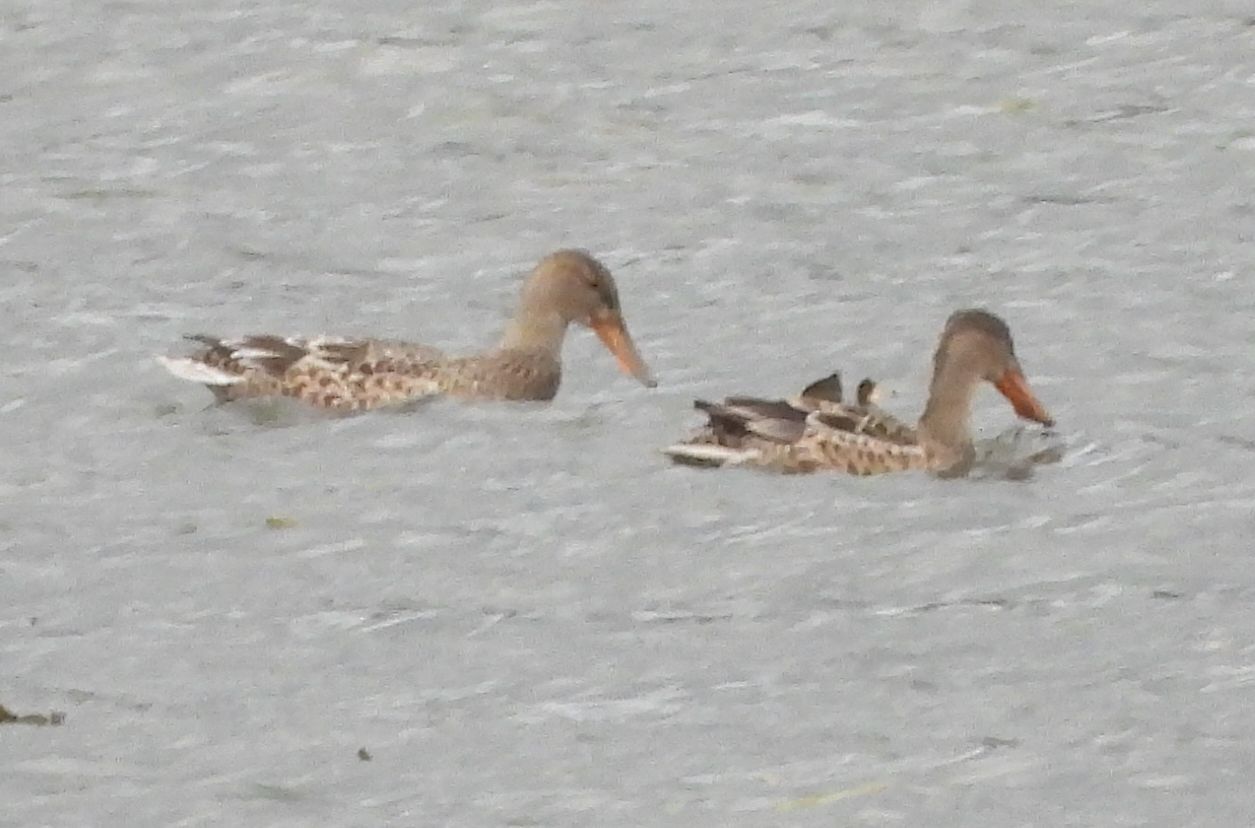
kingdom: Animalia
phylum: Chordata
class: Aves
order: Anseriformes
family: Anatidae
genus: Spatula
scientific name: Spatula clypeata
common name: Northern shoveler
